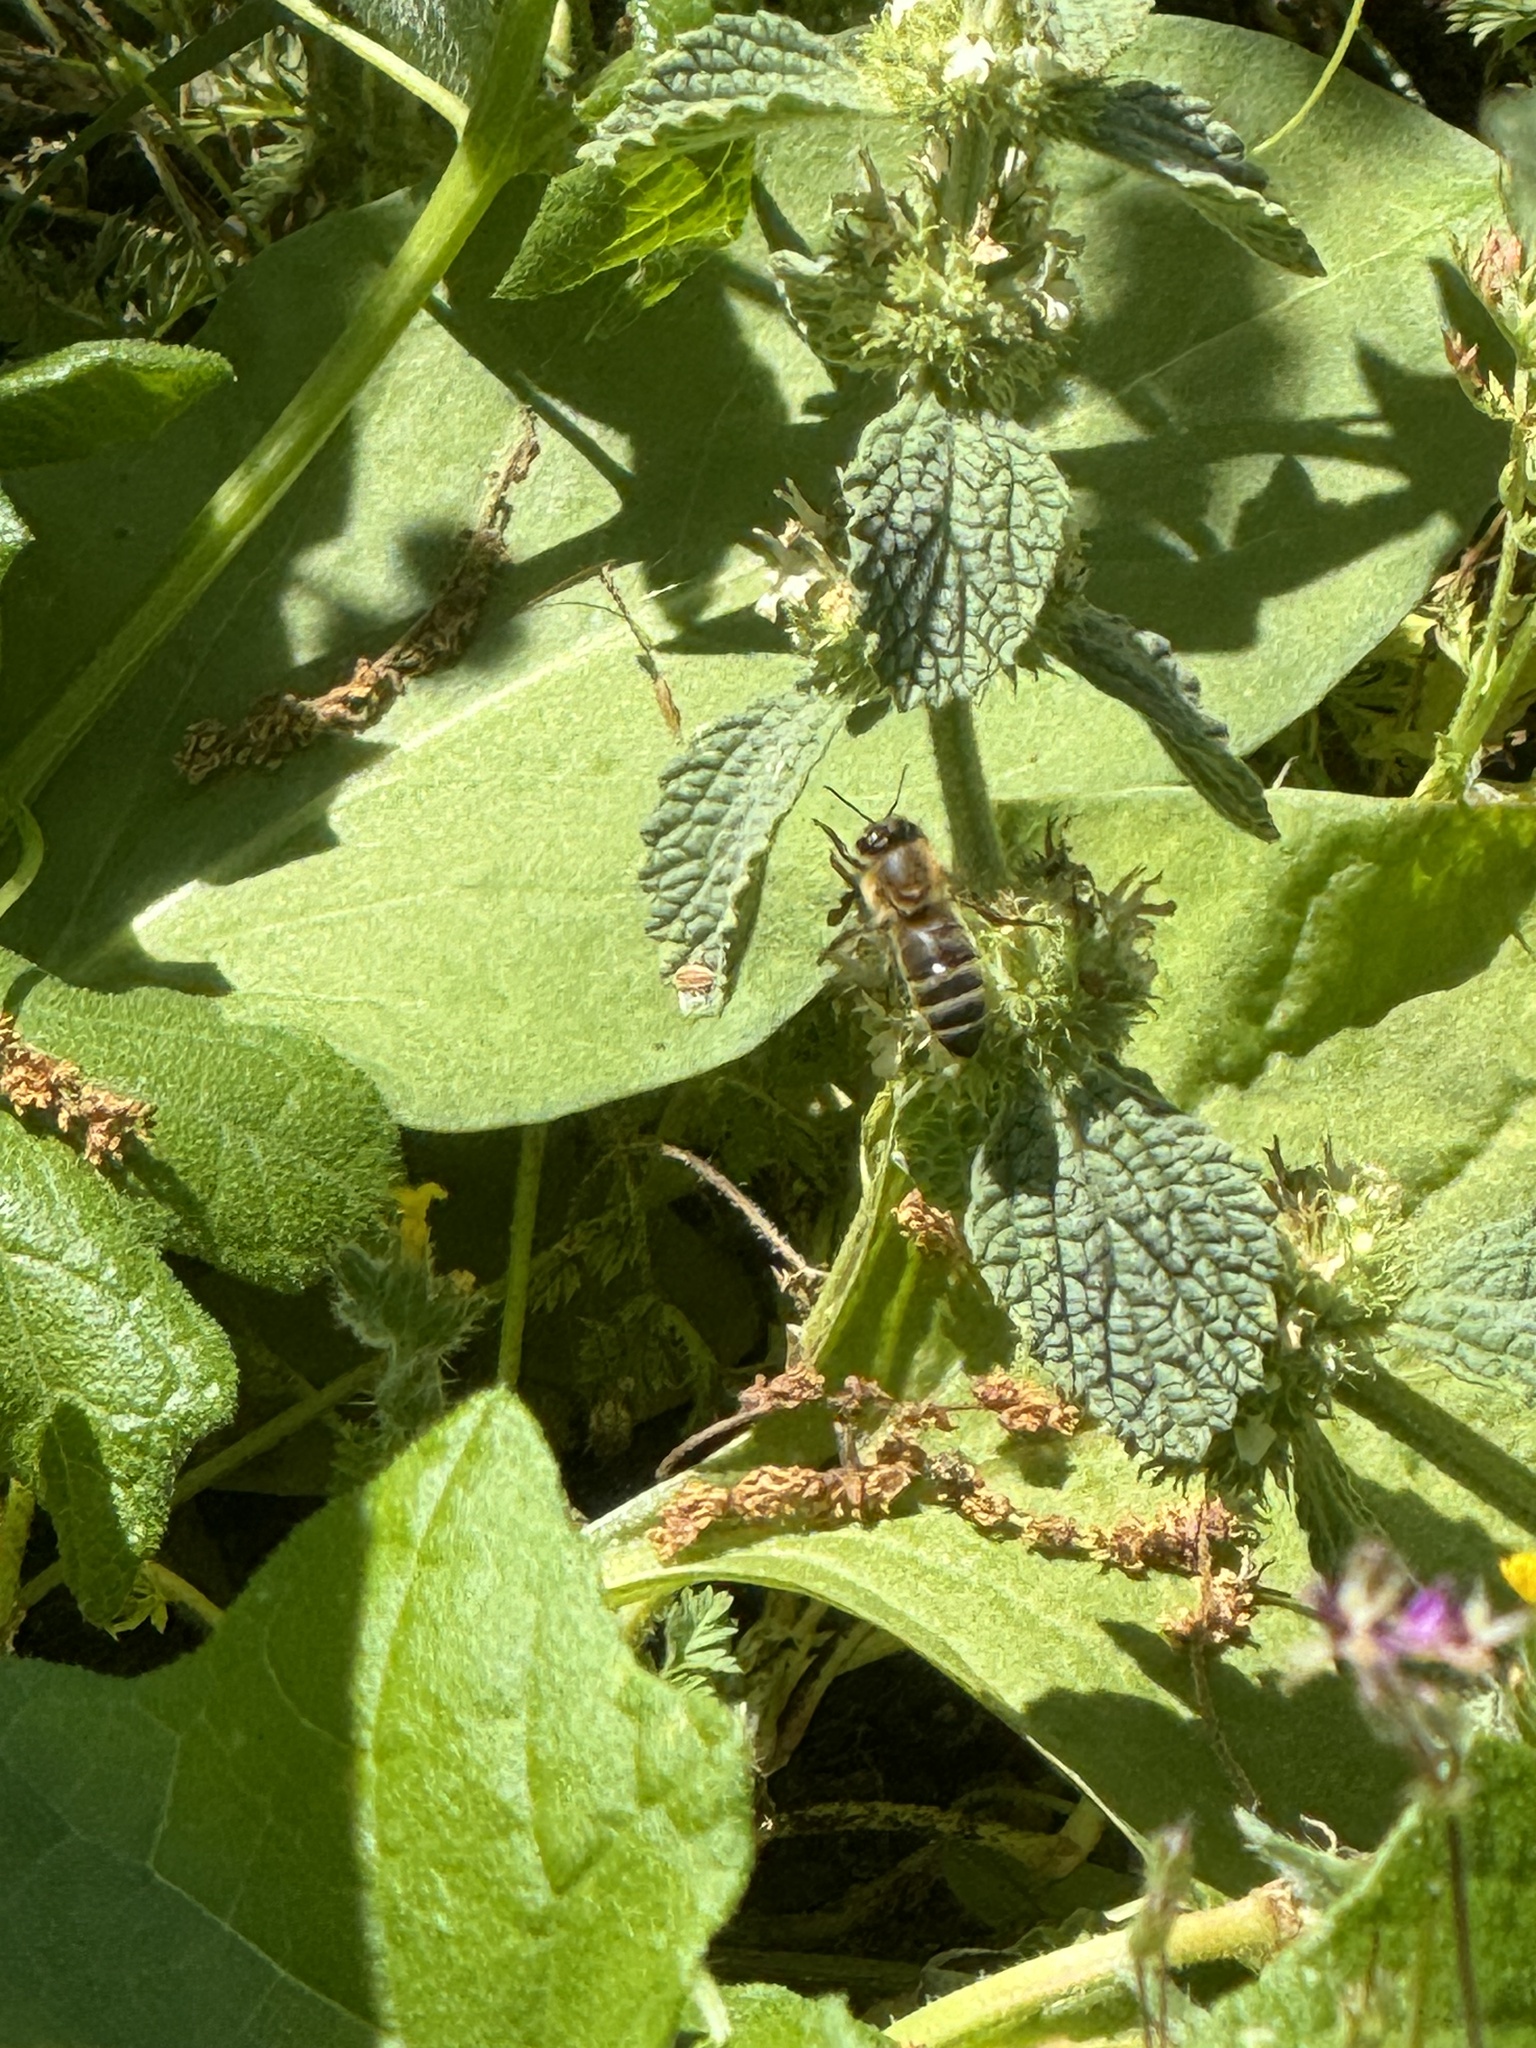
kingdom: Animalia
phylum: Arthropoda
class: Insecta
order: Hymenoptera
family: Apidae
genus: Apis
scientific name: Apis mellifera
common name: Honey bee
